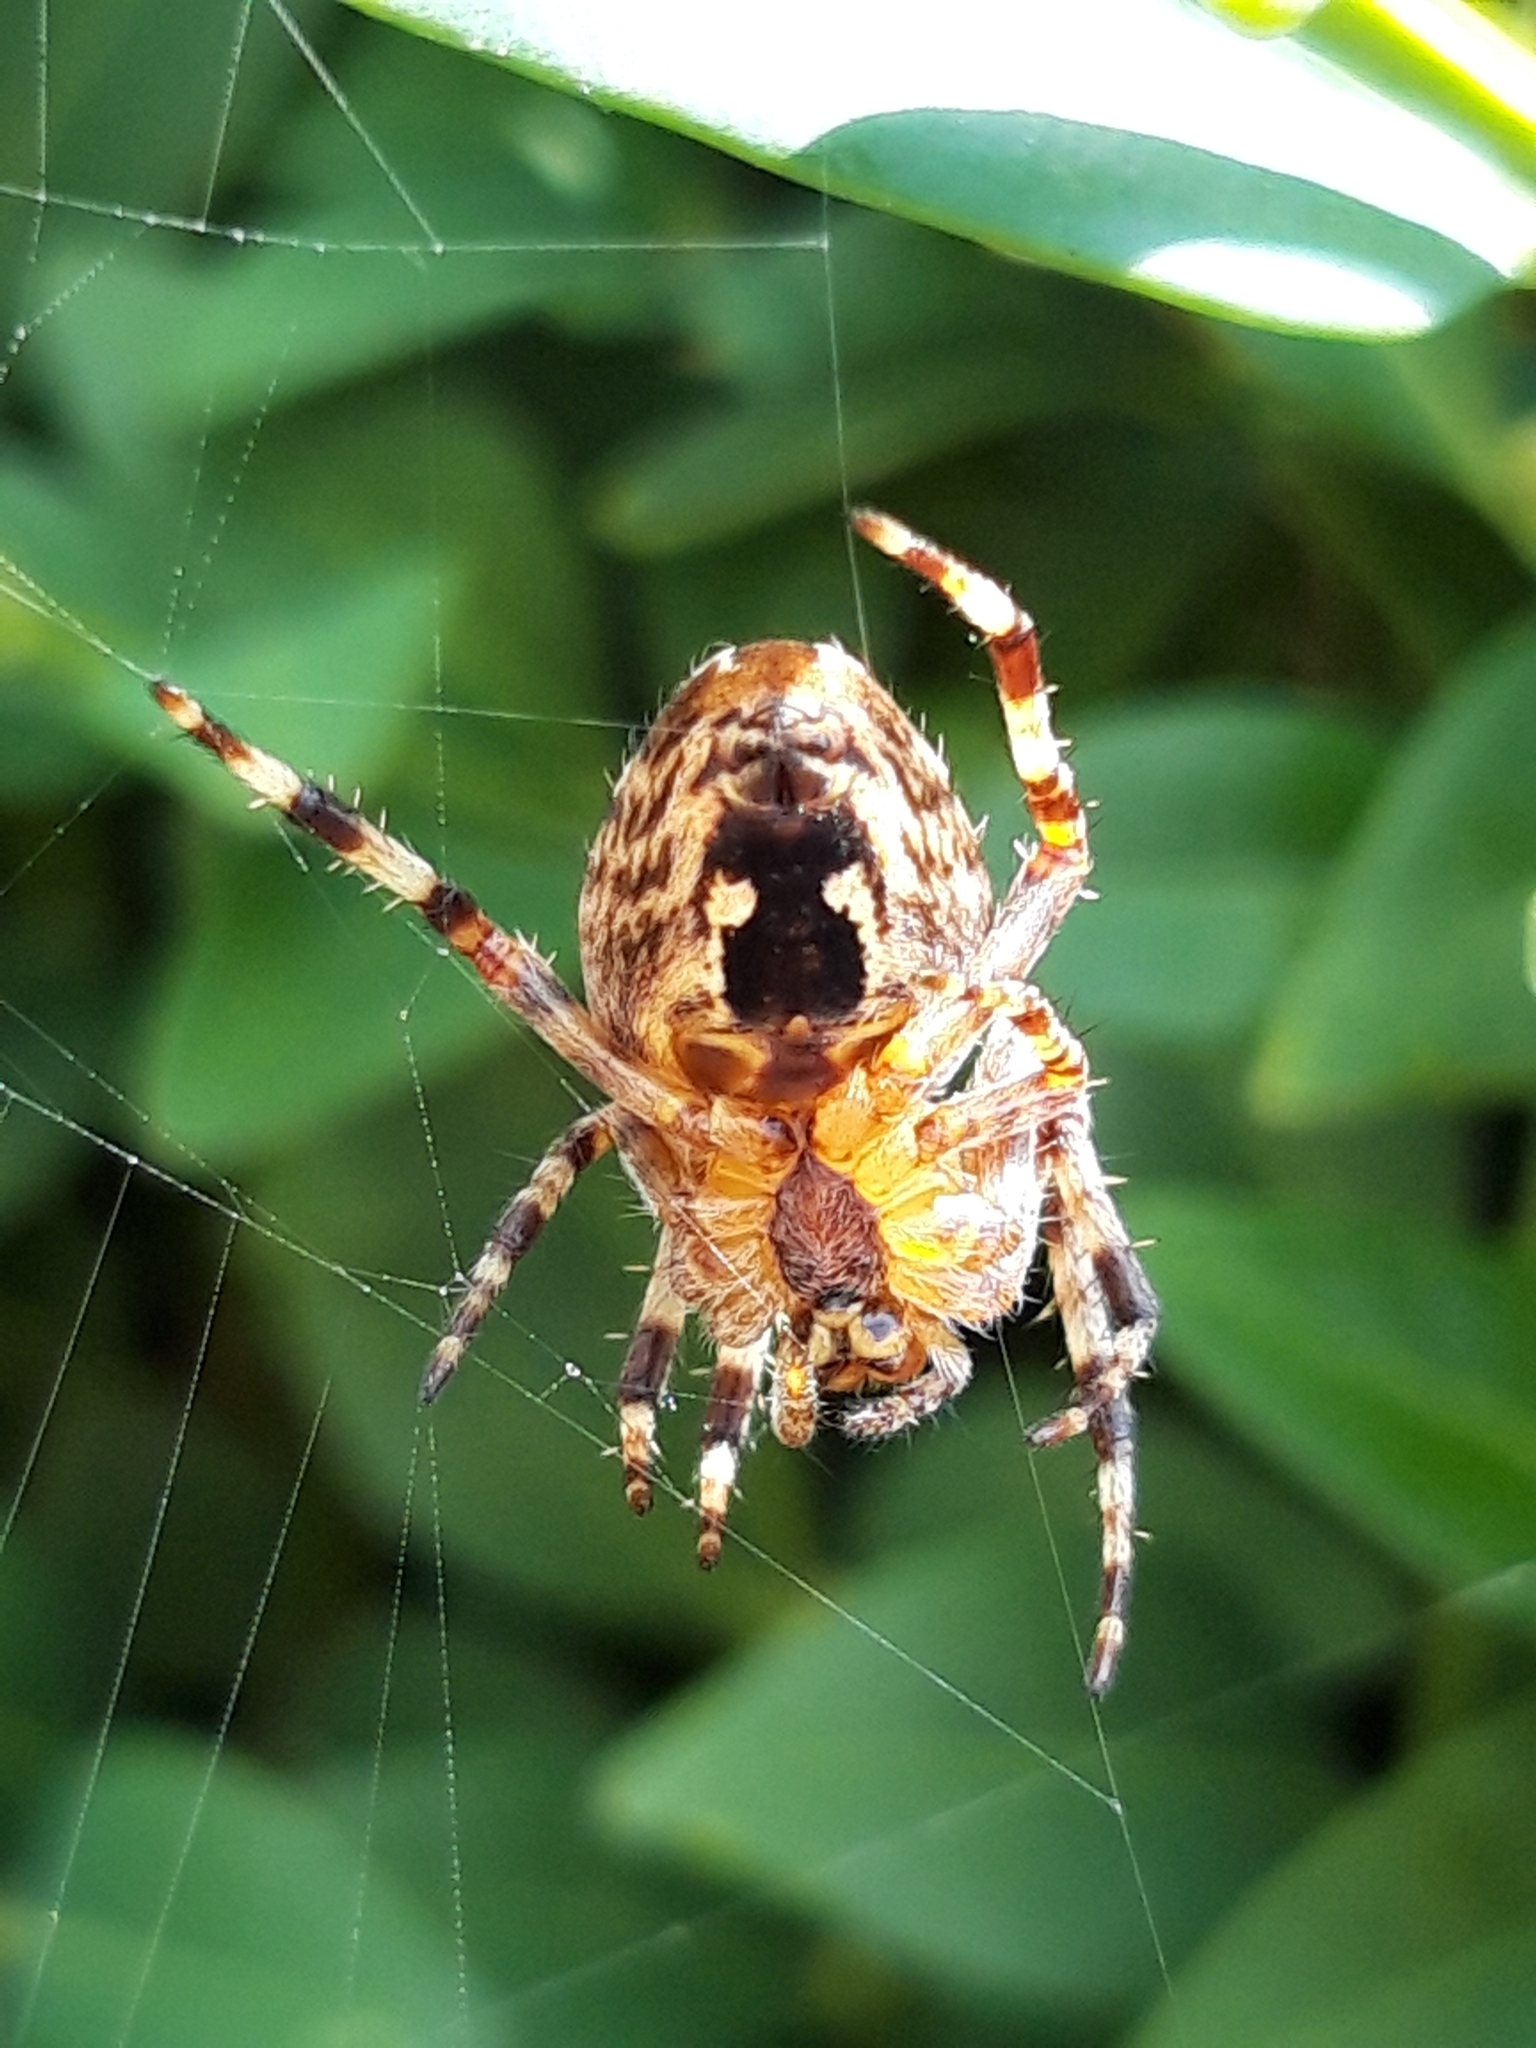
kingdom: Animalia
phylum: Arthropoda
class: Arachnida
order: Araneae
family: Araneidae
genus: Araneus
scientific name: Araneus diadematus
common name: Cross orbweaver
